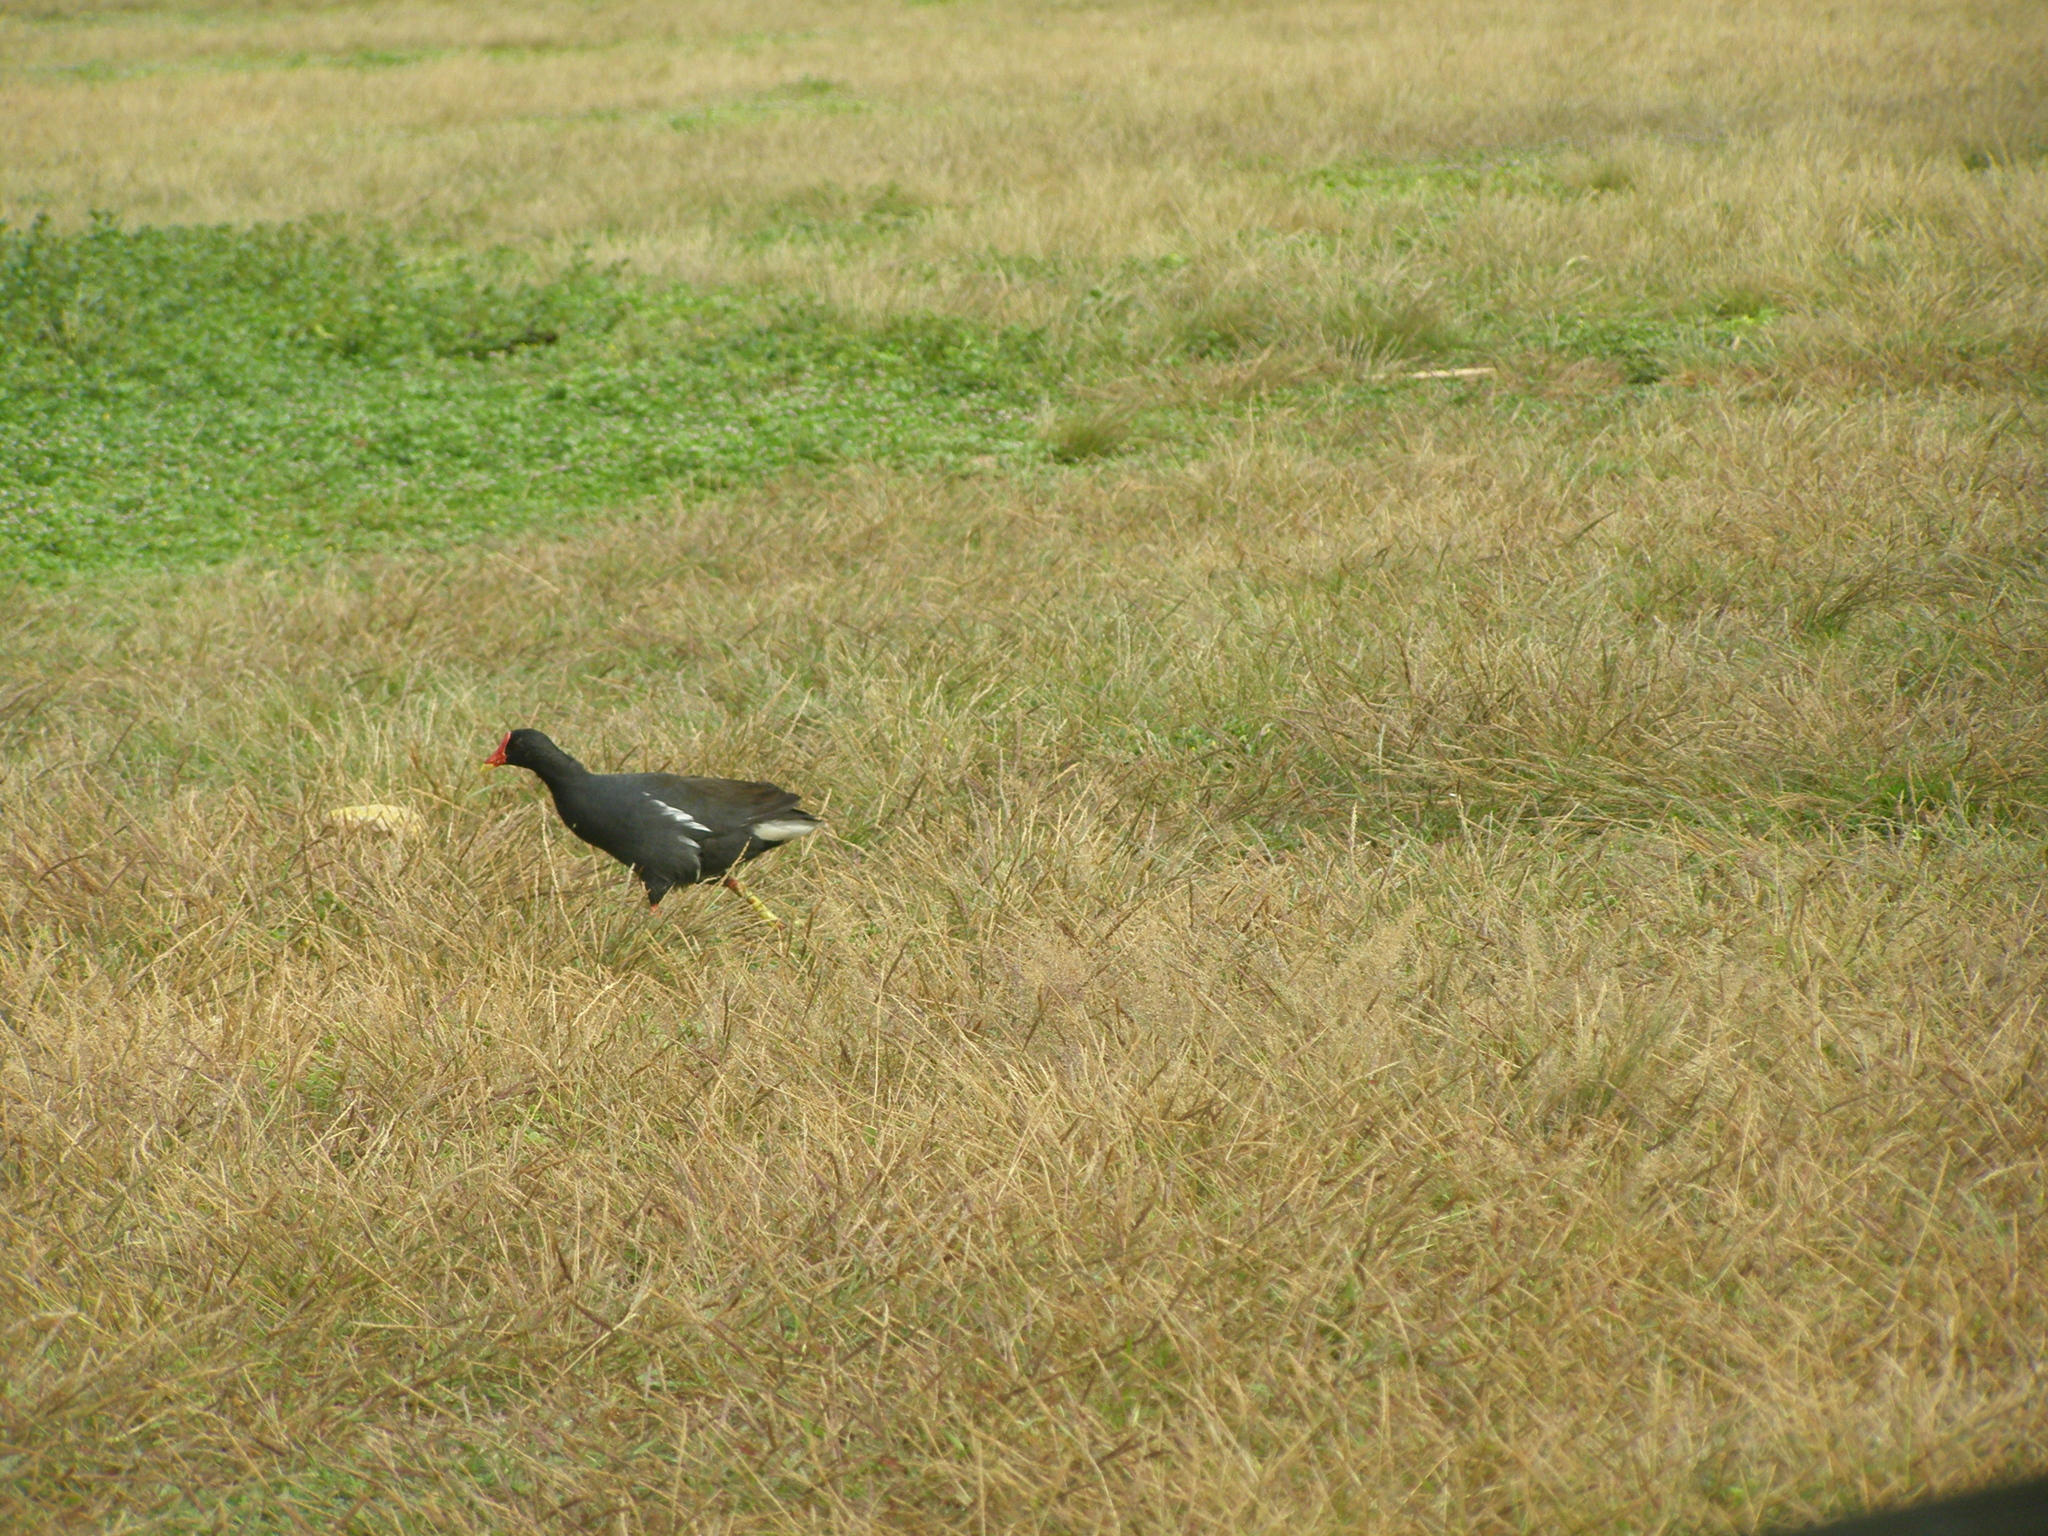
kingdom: Animalia
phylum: Chordata
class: Aves
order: Gruiformes
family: Rallidae
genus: Gallinula
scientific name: Gallinula chloropus
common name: Common moorhen
